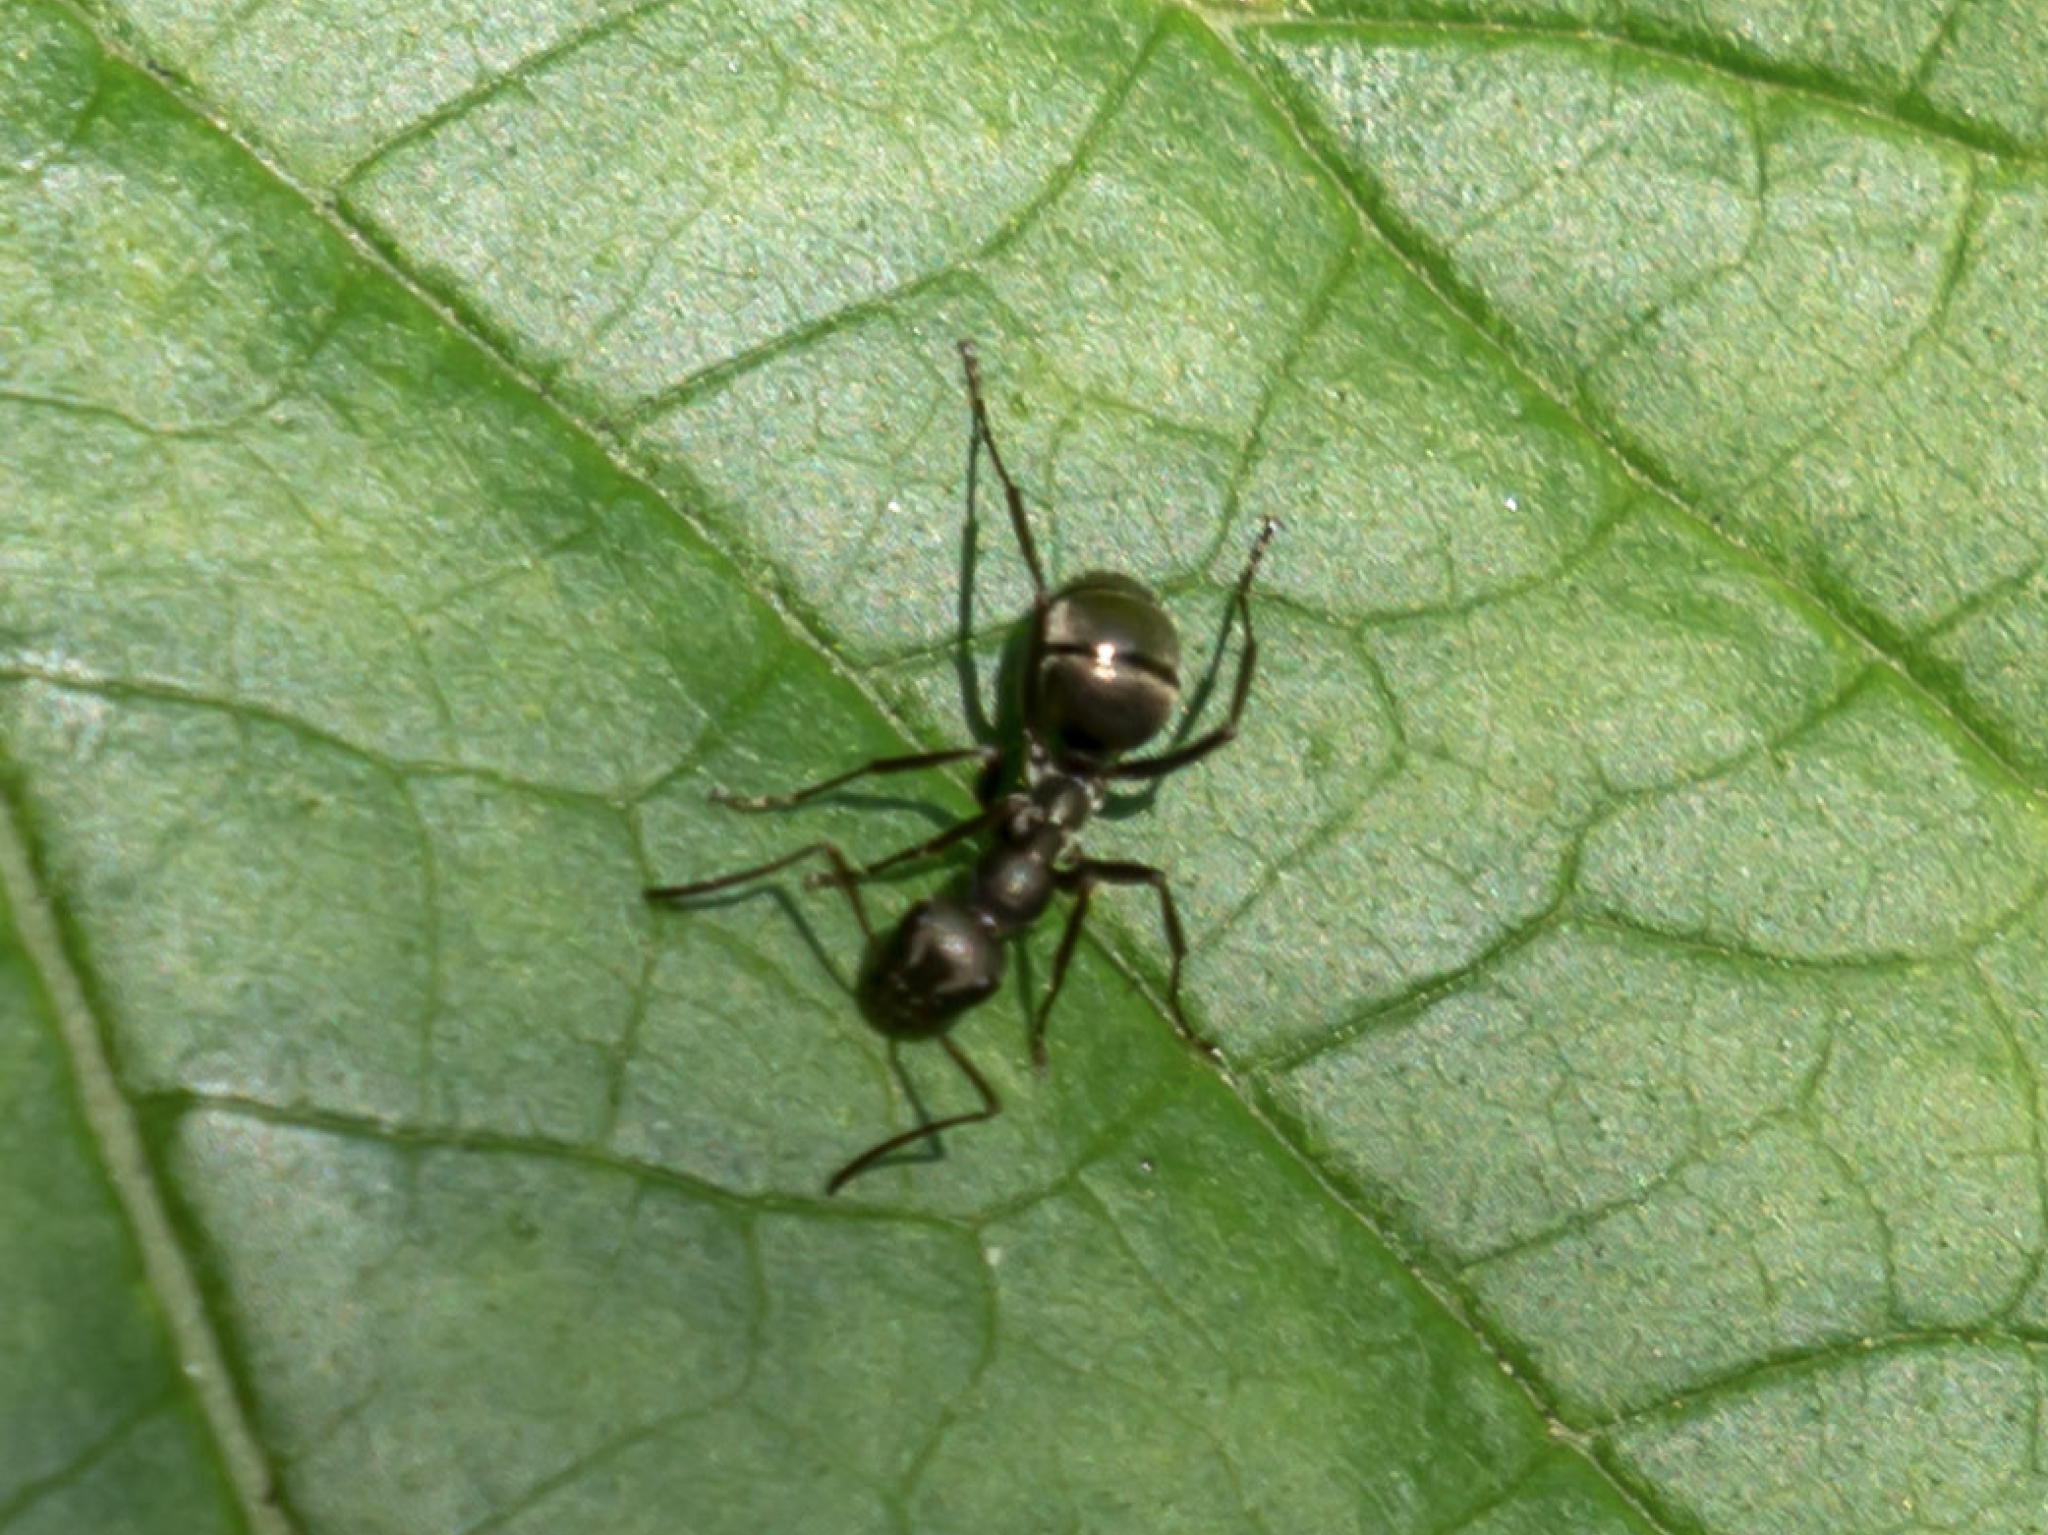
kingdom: Animalia
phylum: Arthropoda
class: Insecta
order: Hymenoptera
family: Formicidae
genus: Formica
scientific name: Formica subsericea
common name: Silky field ant
